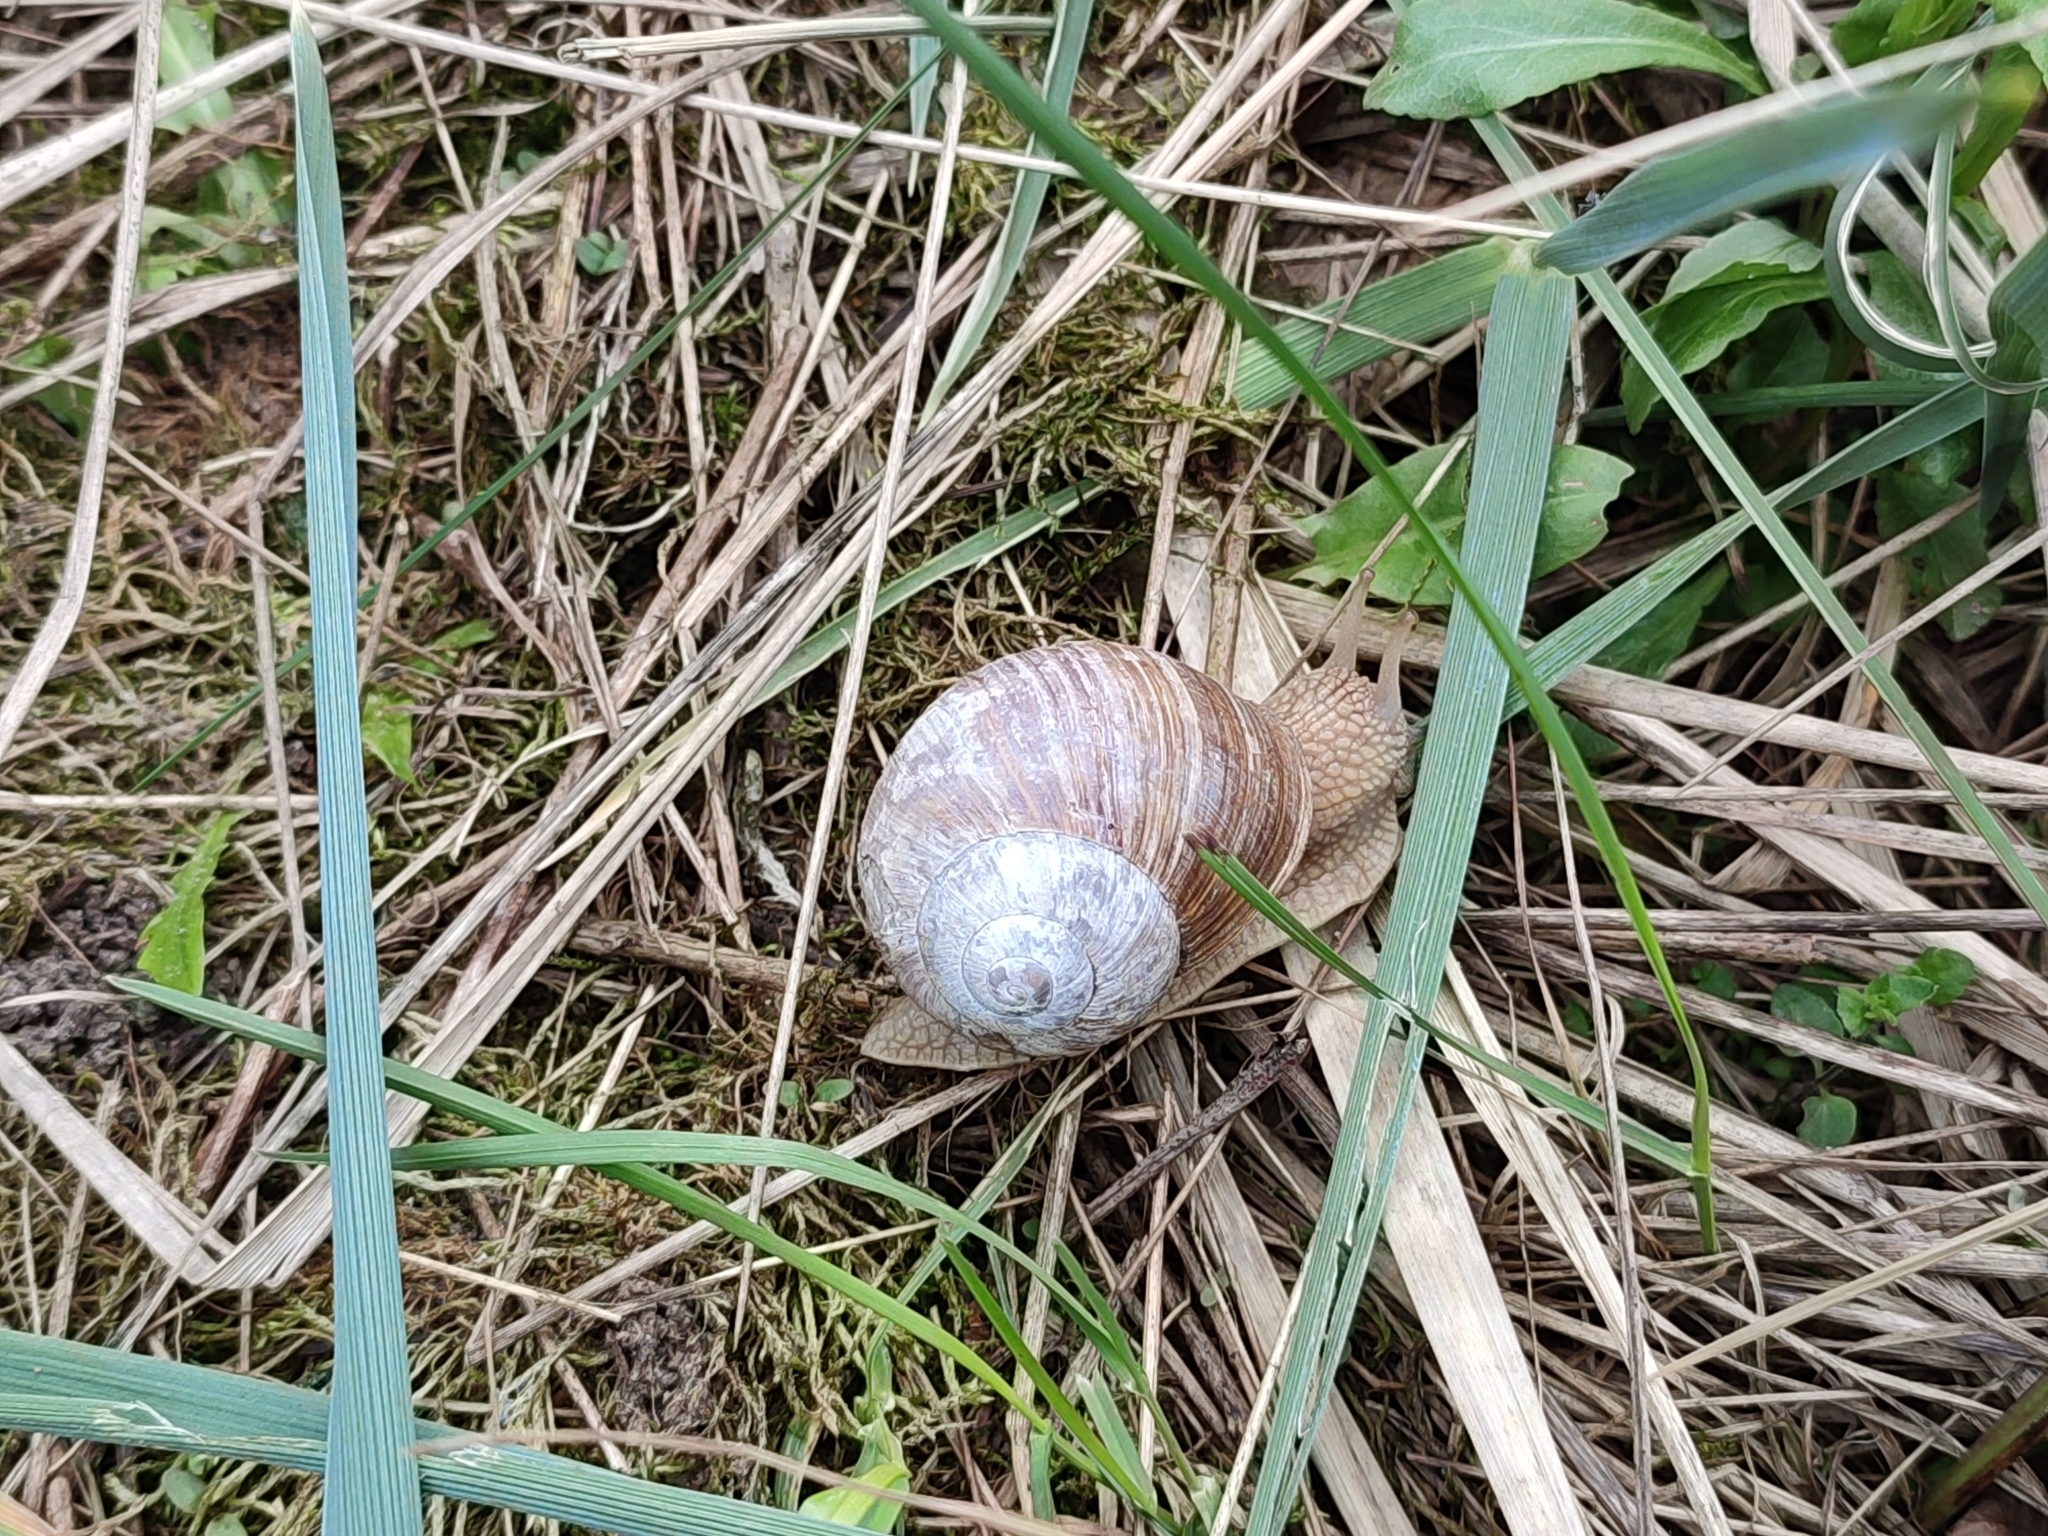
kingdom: Animalia
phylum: Mollusca
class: Gastropoda
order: Stylommatophora
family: Helicidae
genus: Helix
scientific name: Helix pomatia
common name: Roman snail
